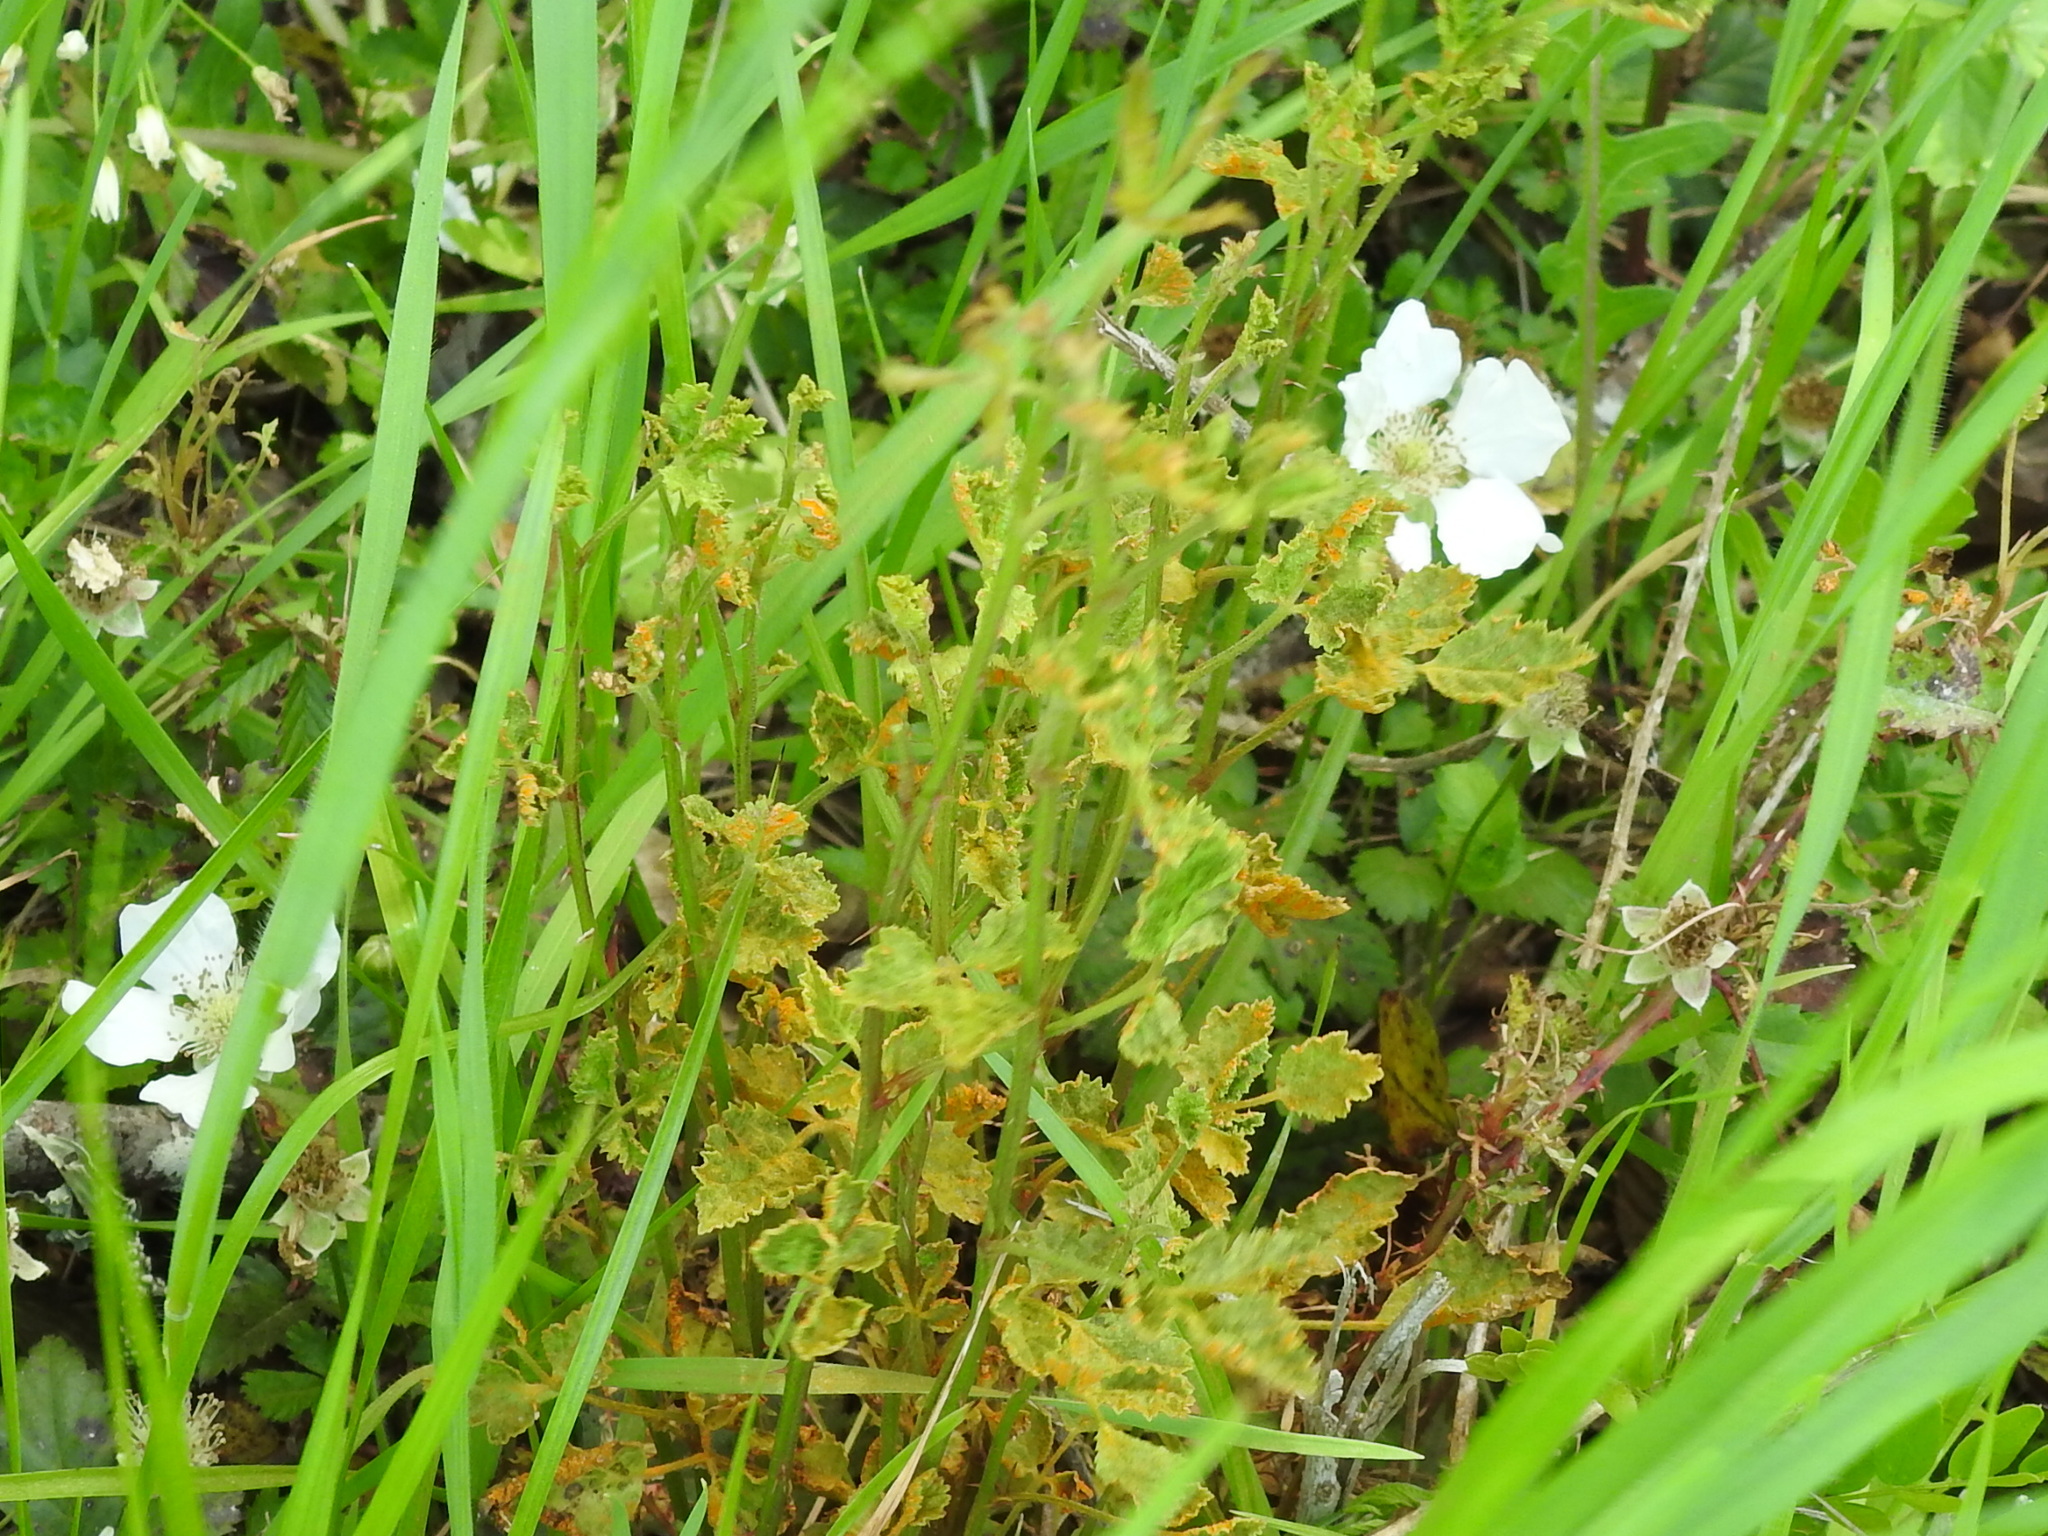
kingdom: Fungi
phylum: Basidiomycota
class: Pucciniomycetes
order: Pucciniales
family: Phragmidiaceae
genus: Arthuriomyces
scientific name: Arthuriomyces peckianus
